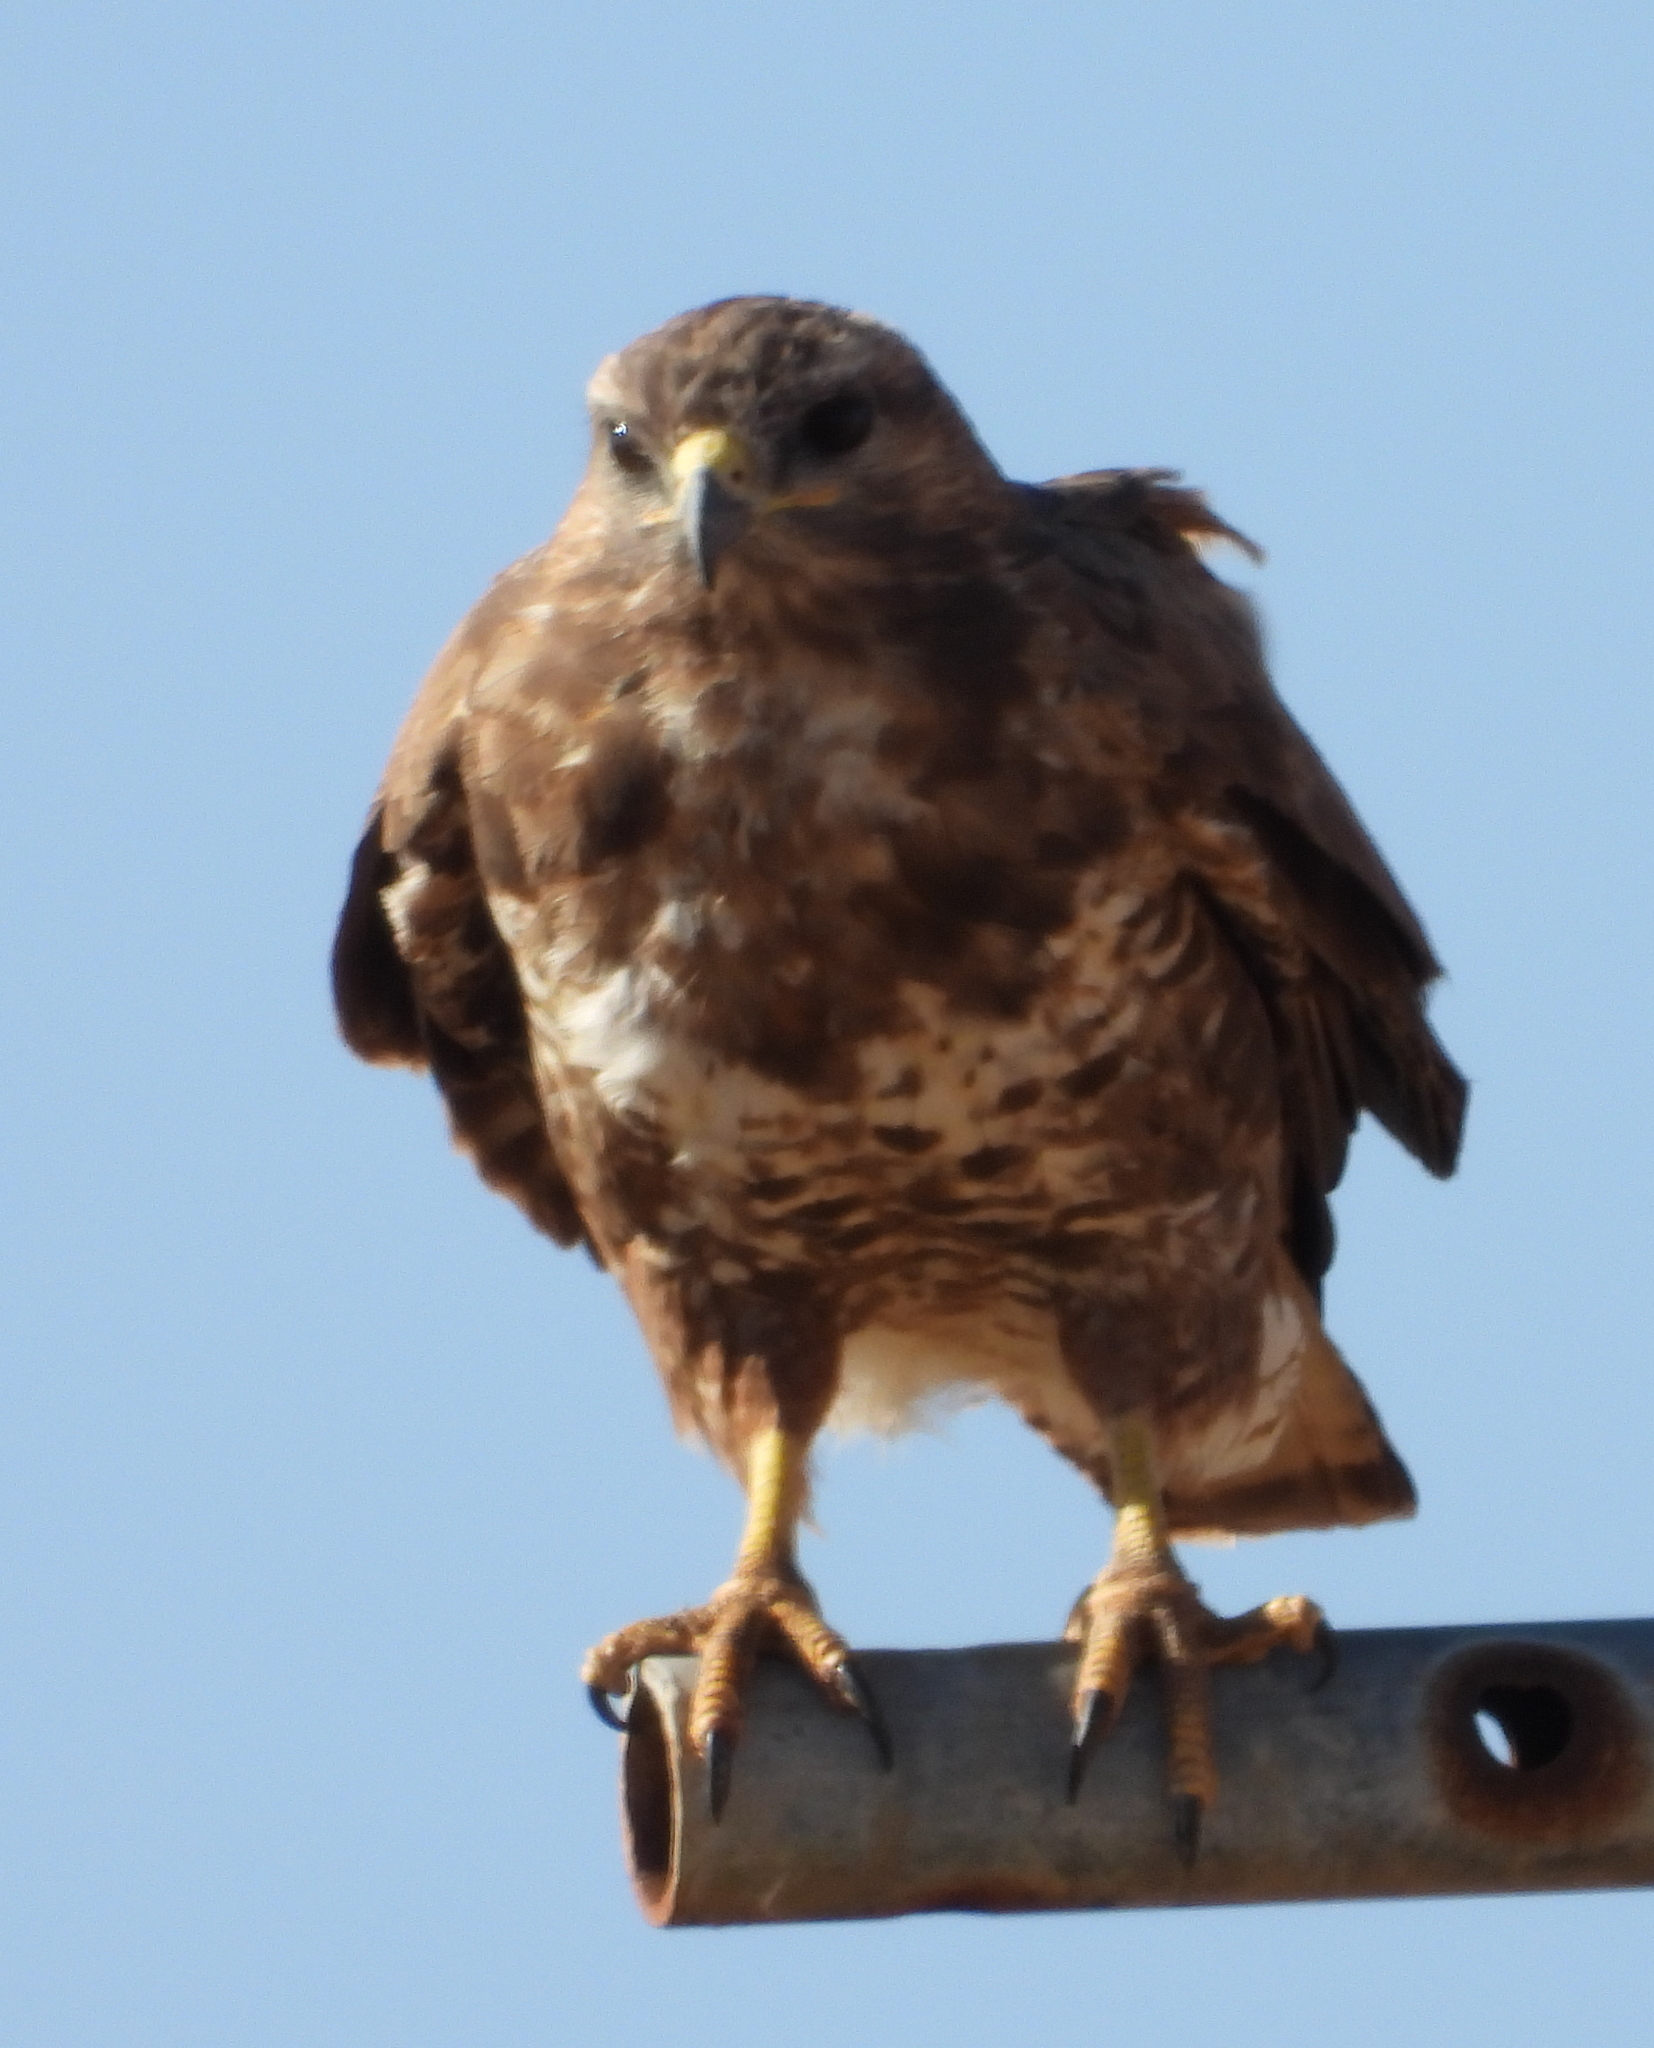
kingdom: Animalia
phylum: Chordata
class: Aves
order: Accipitriformes
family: Accipitridae
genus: Buteo
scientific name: Buteo buteo
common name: Common buzzard
